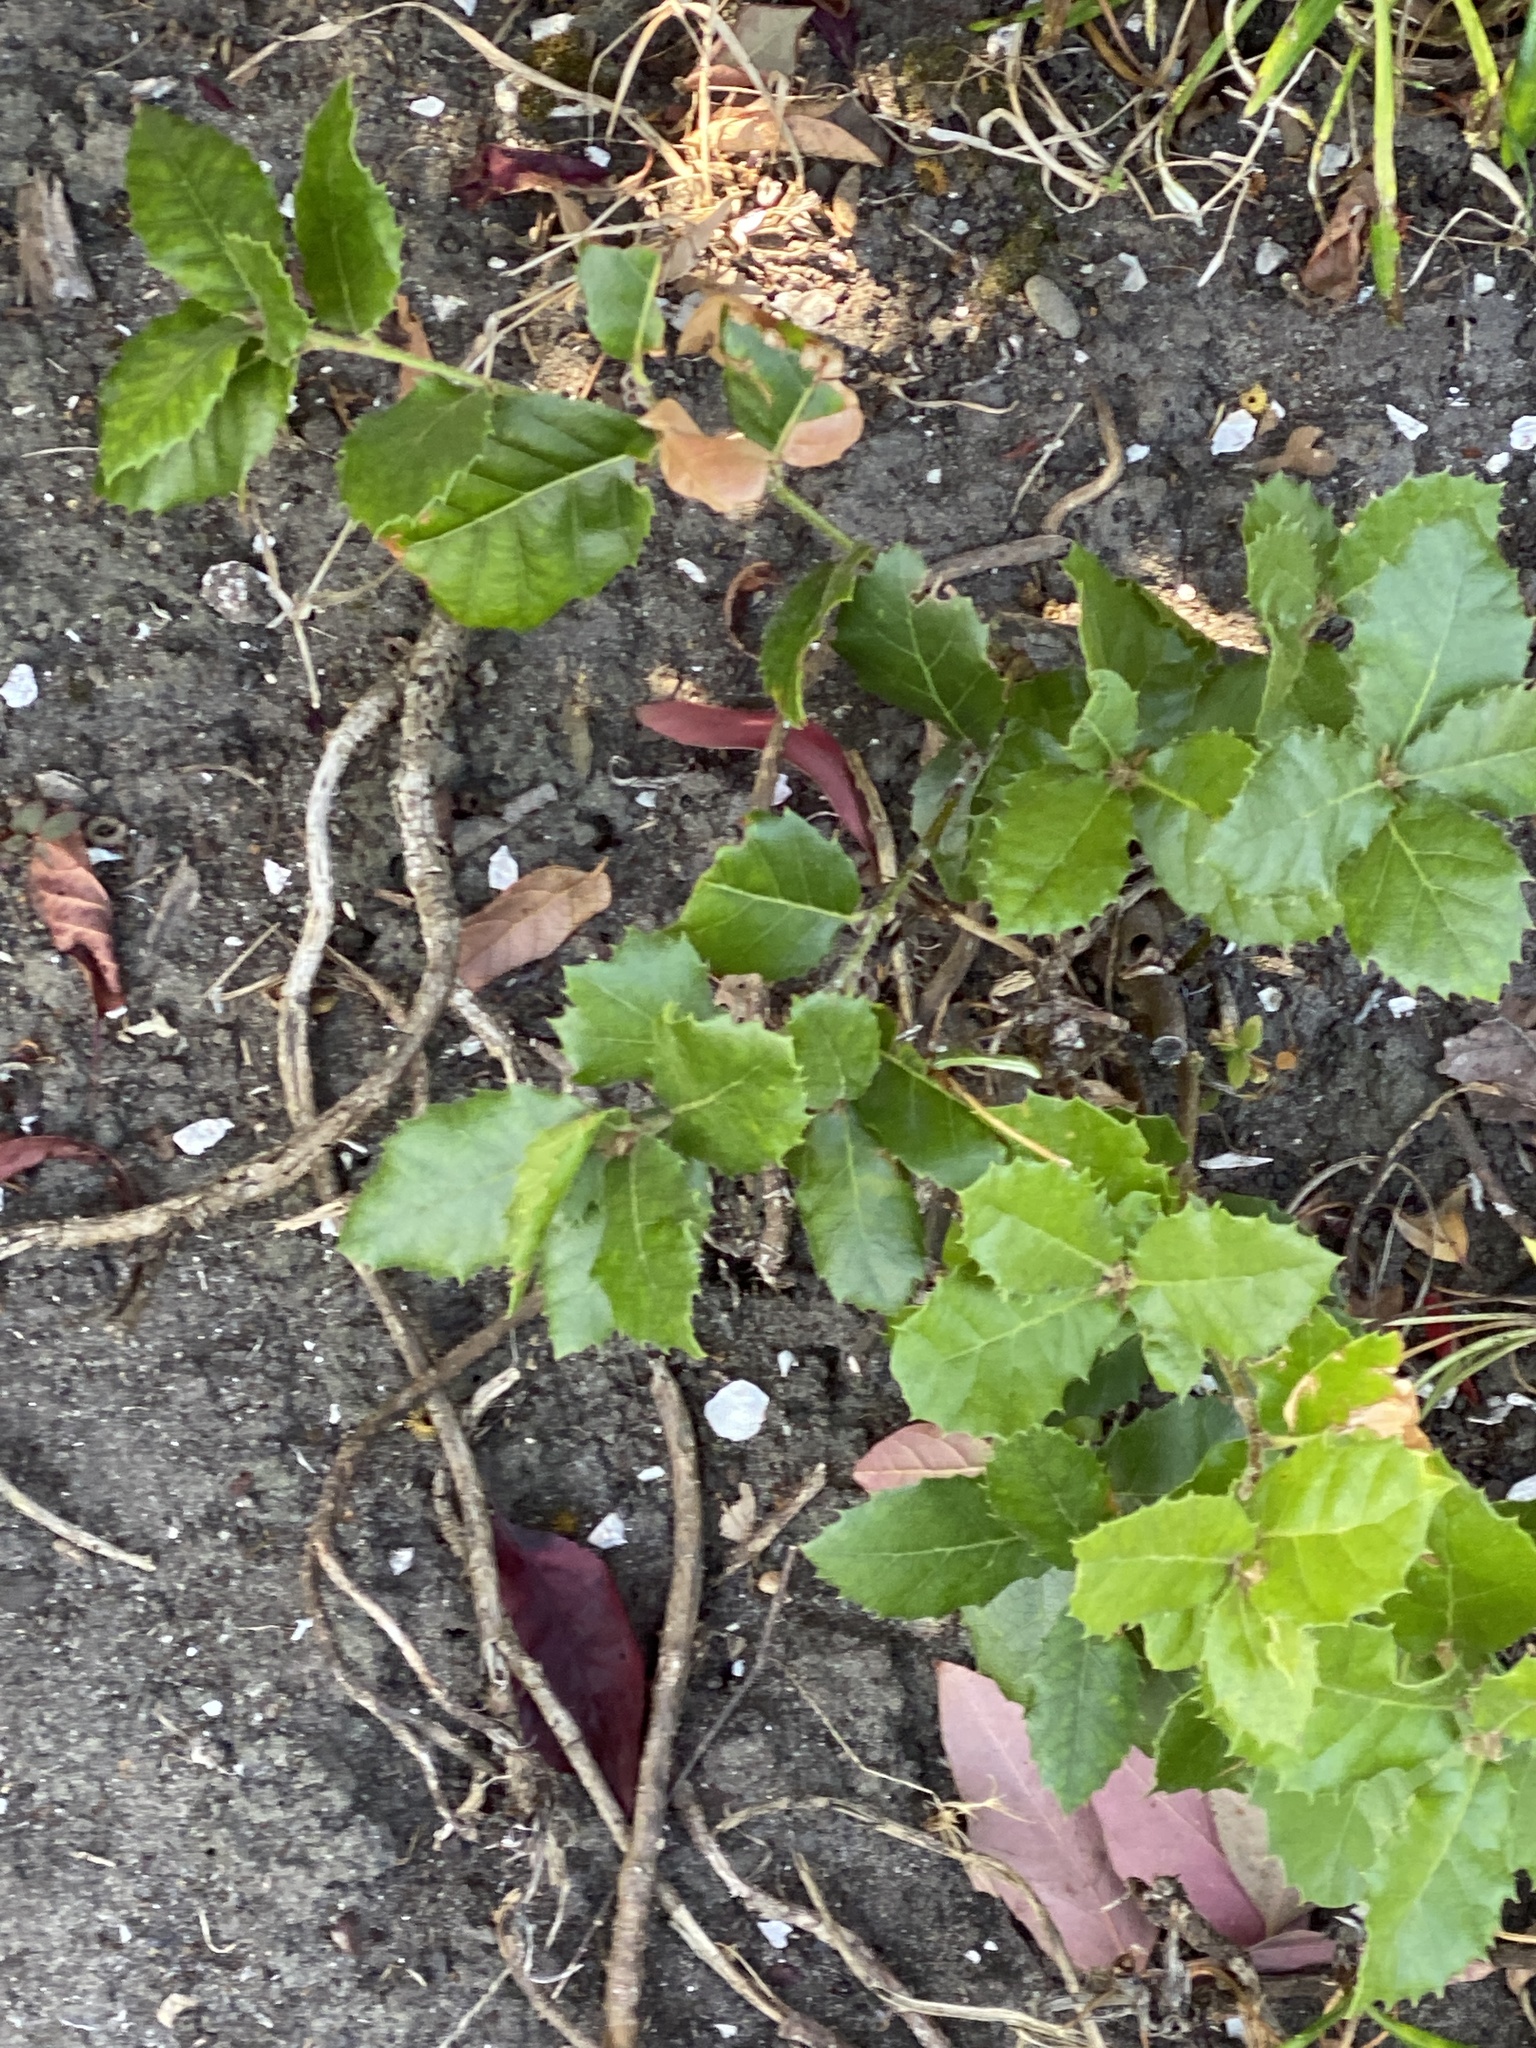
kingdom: Plantae
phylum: Tracheophyta
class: Magnoliopsida
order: Fagales
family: Fagaceae
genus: Quercus
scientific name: Quercus agrifolia
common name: California live oak
